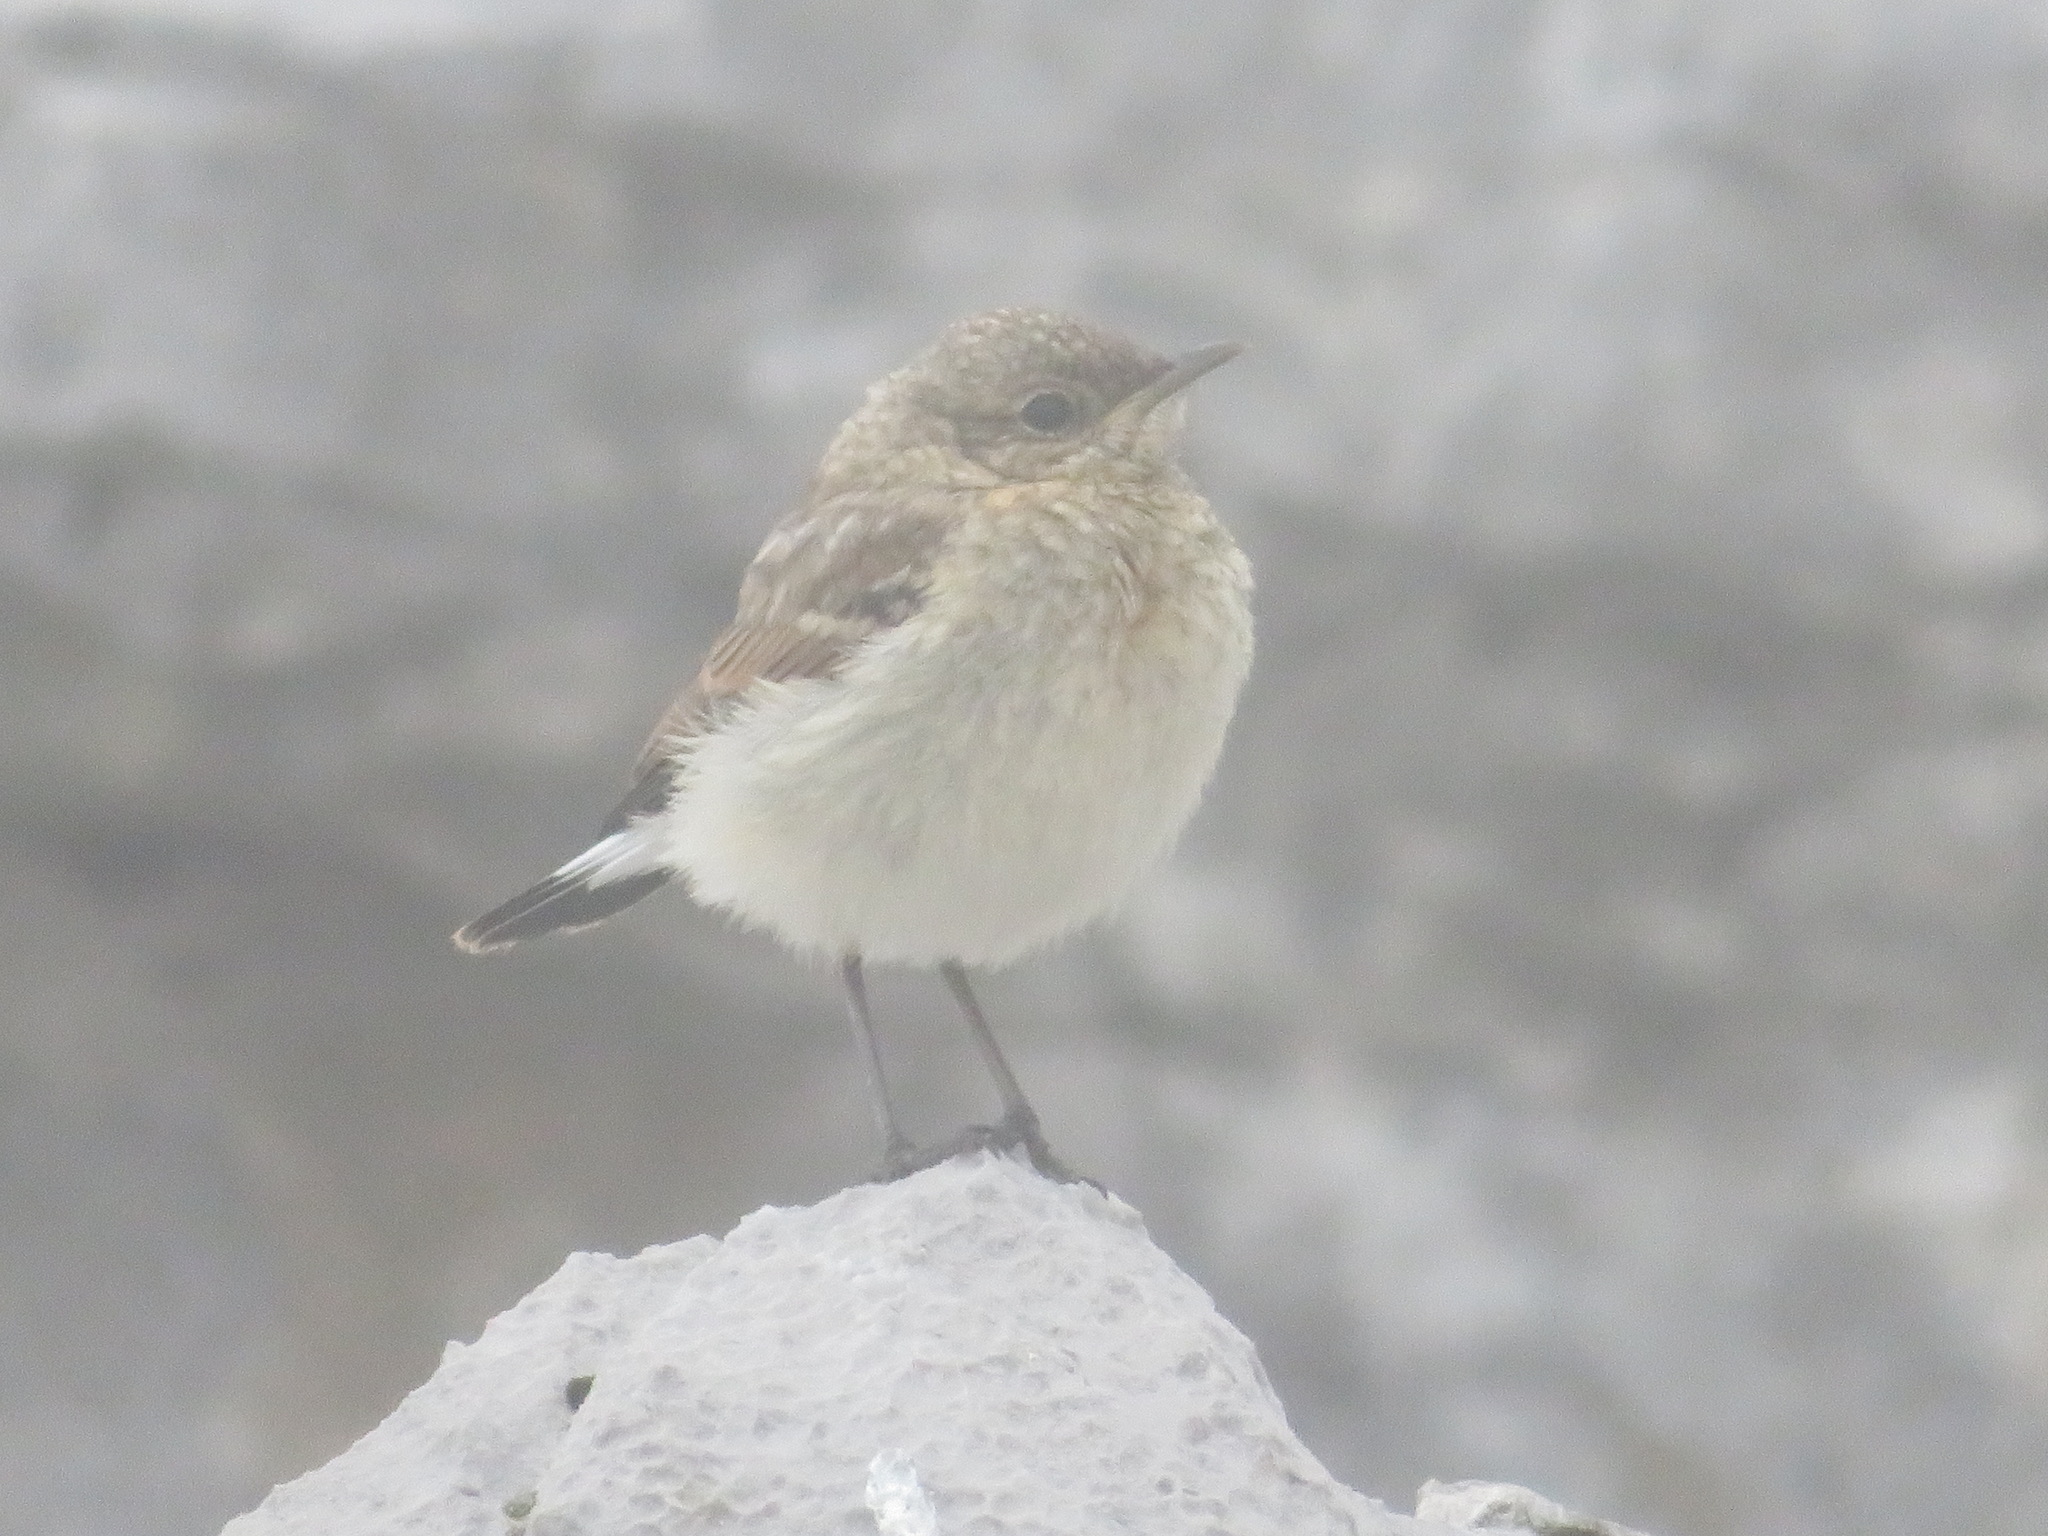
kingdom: Animalia
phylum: Chordata
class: Aves
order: Passeriformes
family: Muscicapidae
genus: Oenanthe
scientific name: Oenanthe oenanthe
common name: Northern wheatear
